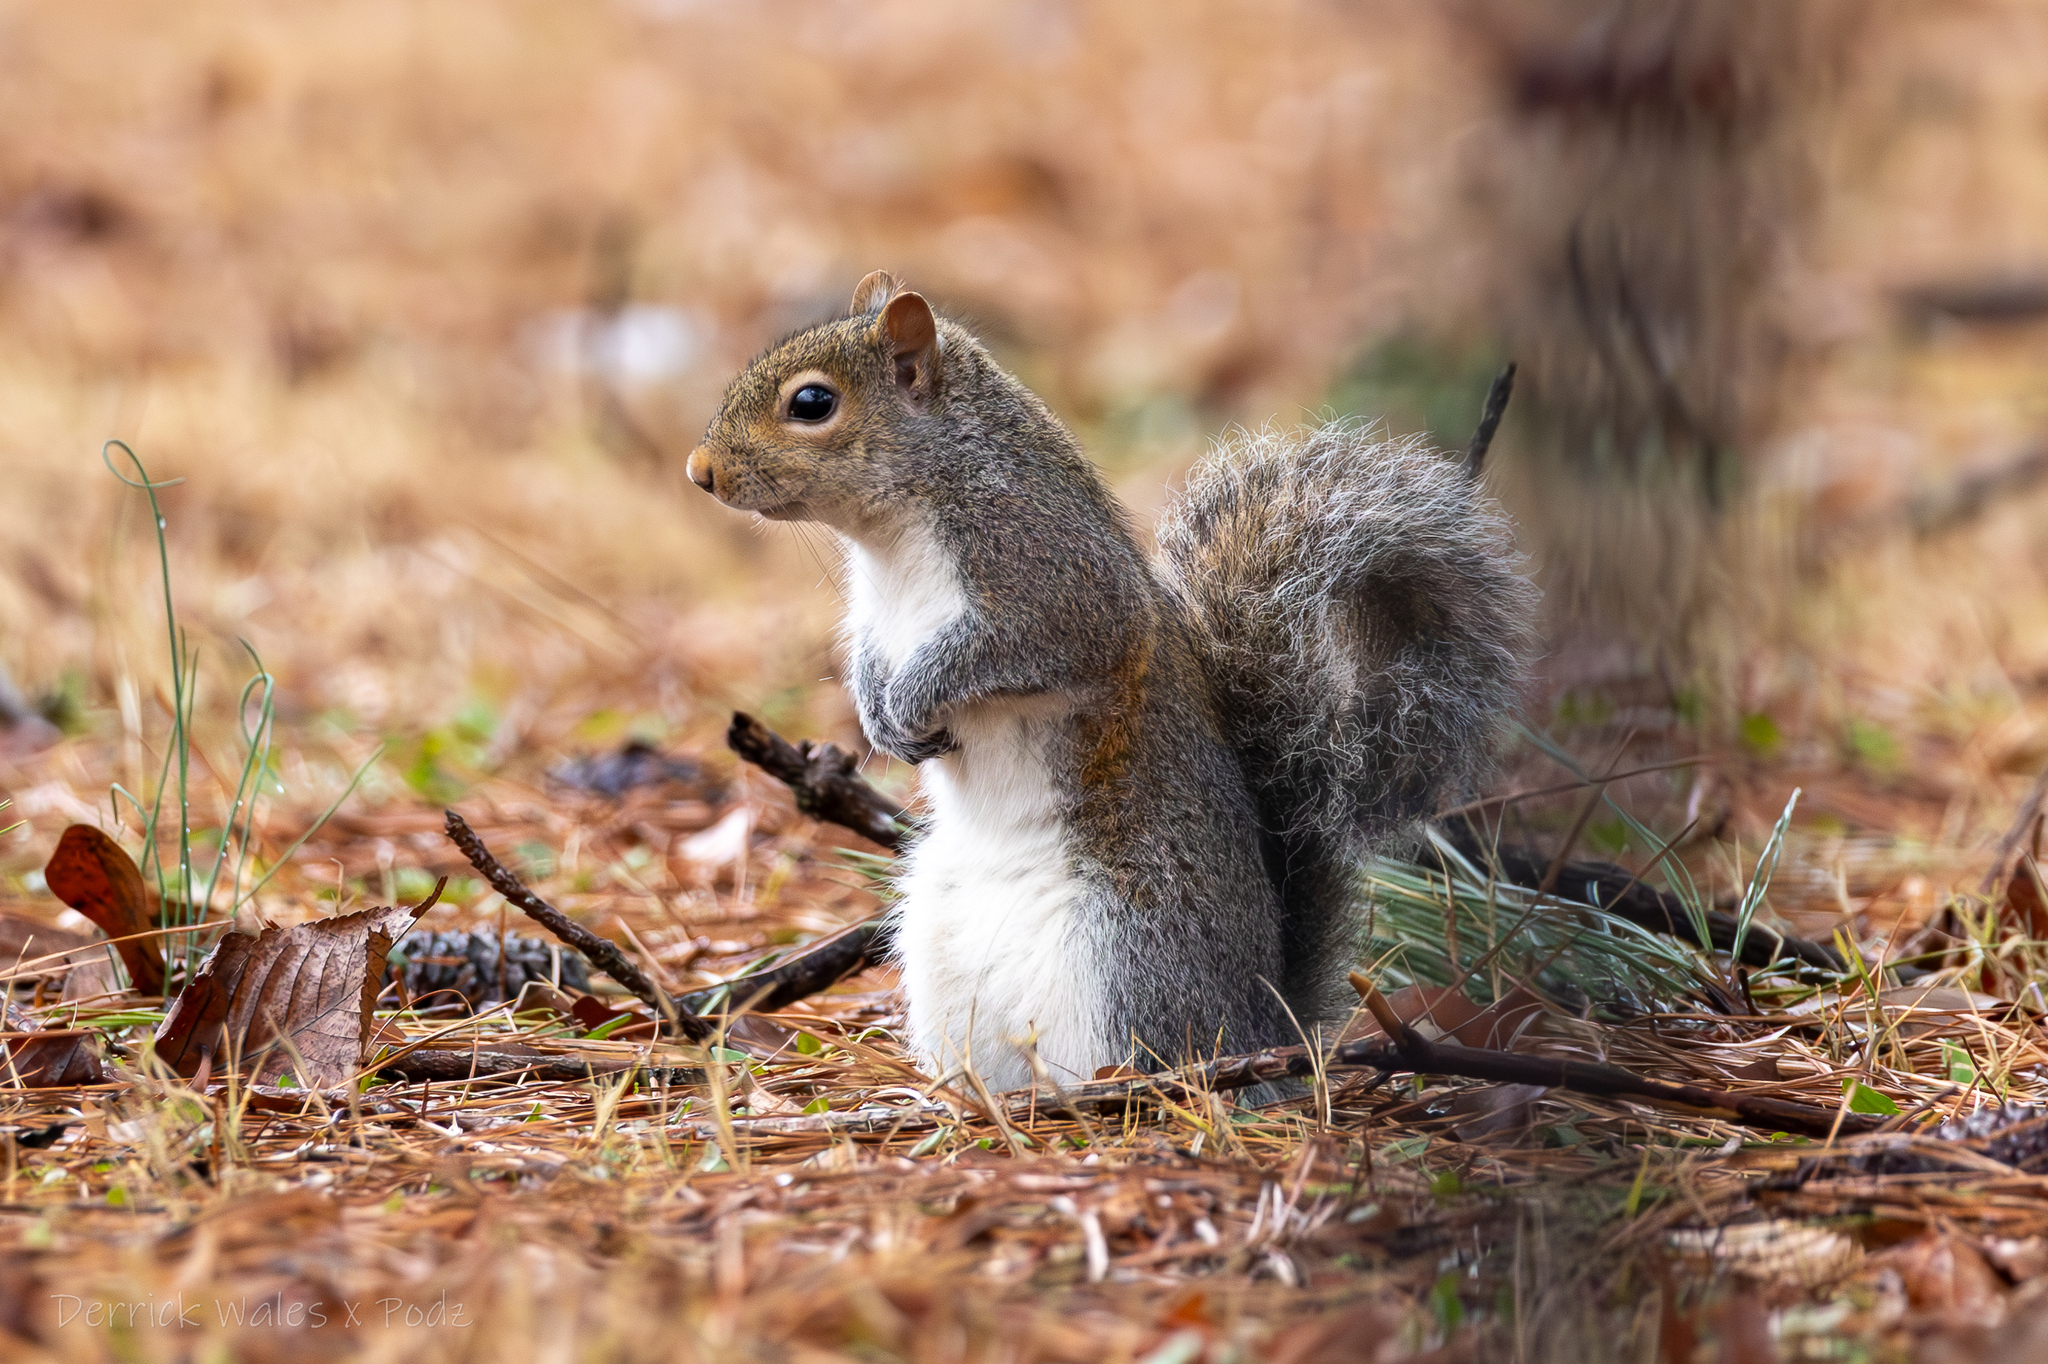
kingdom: Animalia
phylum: Chordata
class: Mammalia
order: Rodentia
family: Sciuridae
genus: Sciurus
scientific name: Sciurus carolinensis
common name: Eastern gray squirrel
